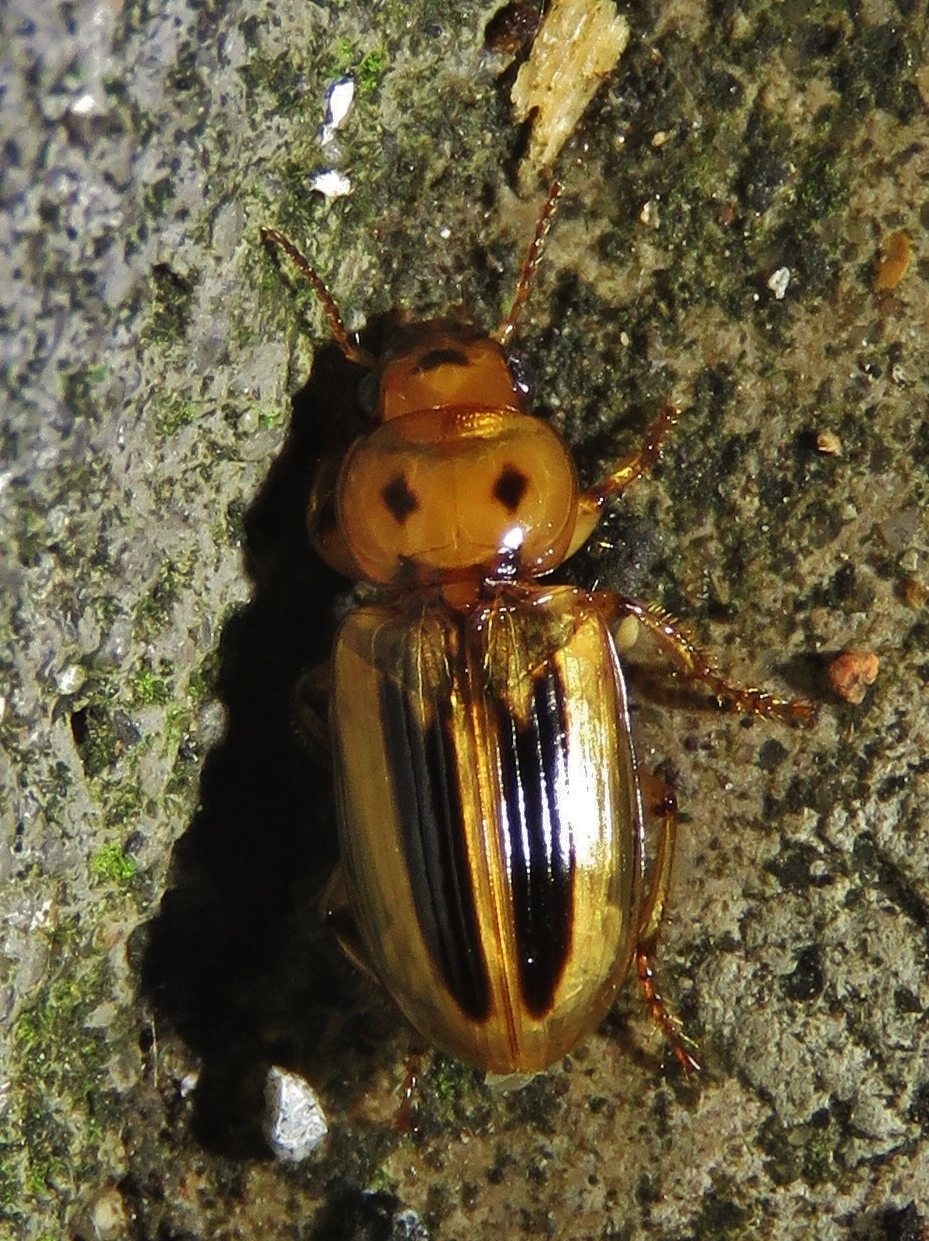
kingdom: Animalia
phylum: Arthropoda
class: Insecta
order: Coleoptera
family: Carabidae
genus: Stenolophus
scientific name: Stenolophus lineola
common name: Lined stenolophus
